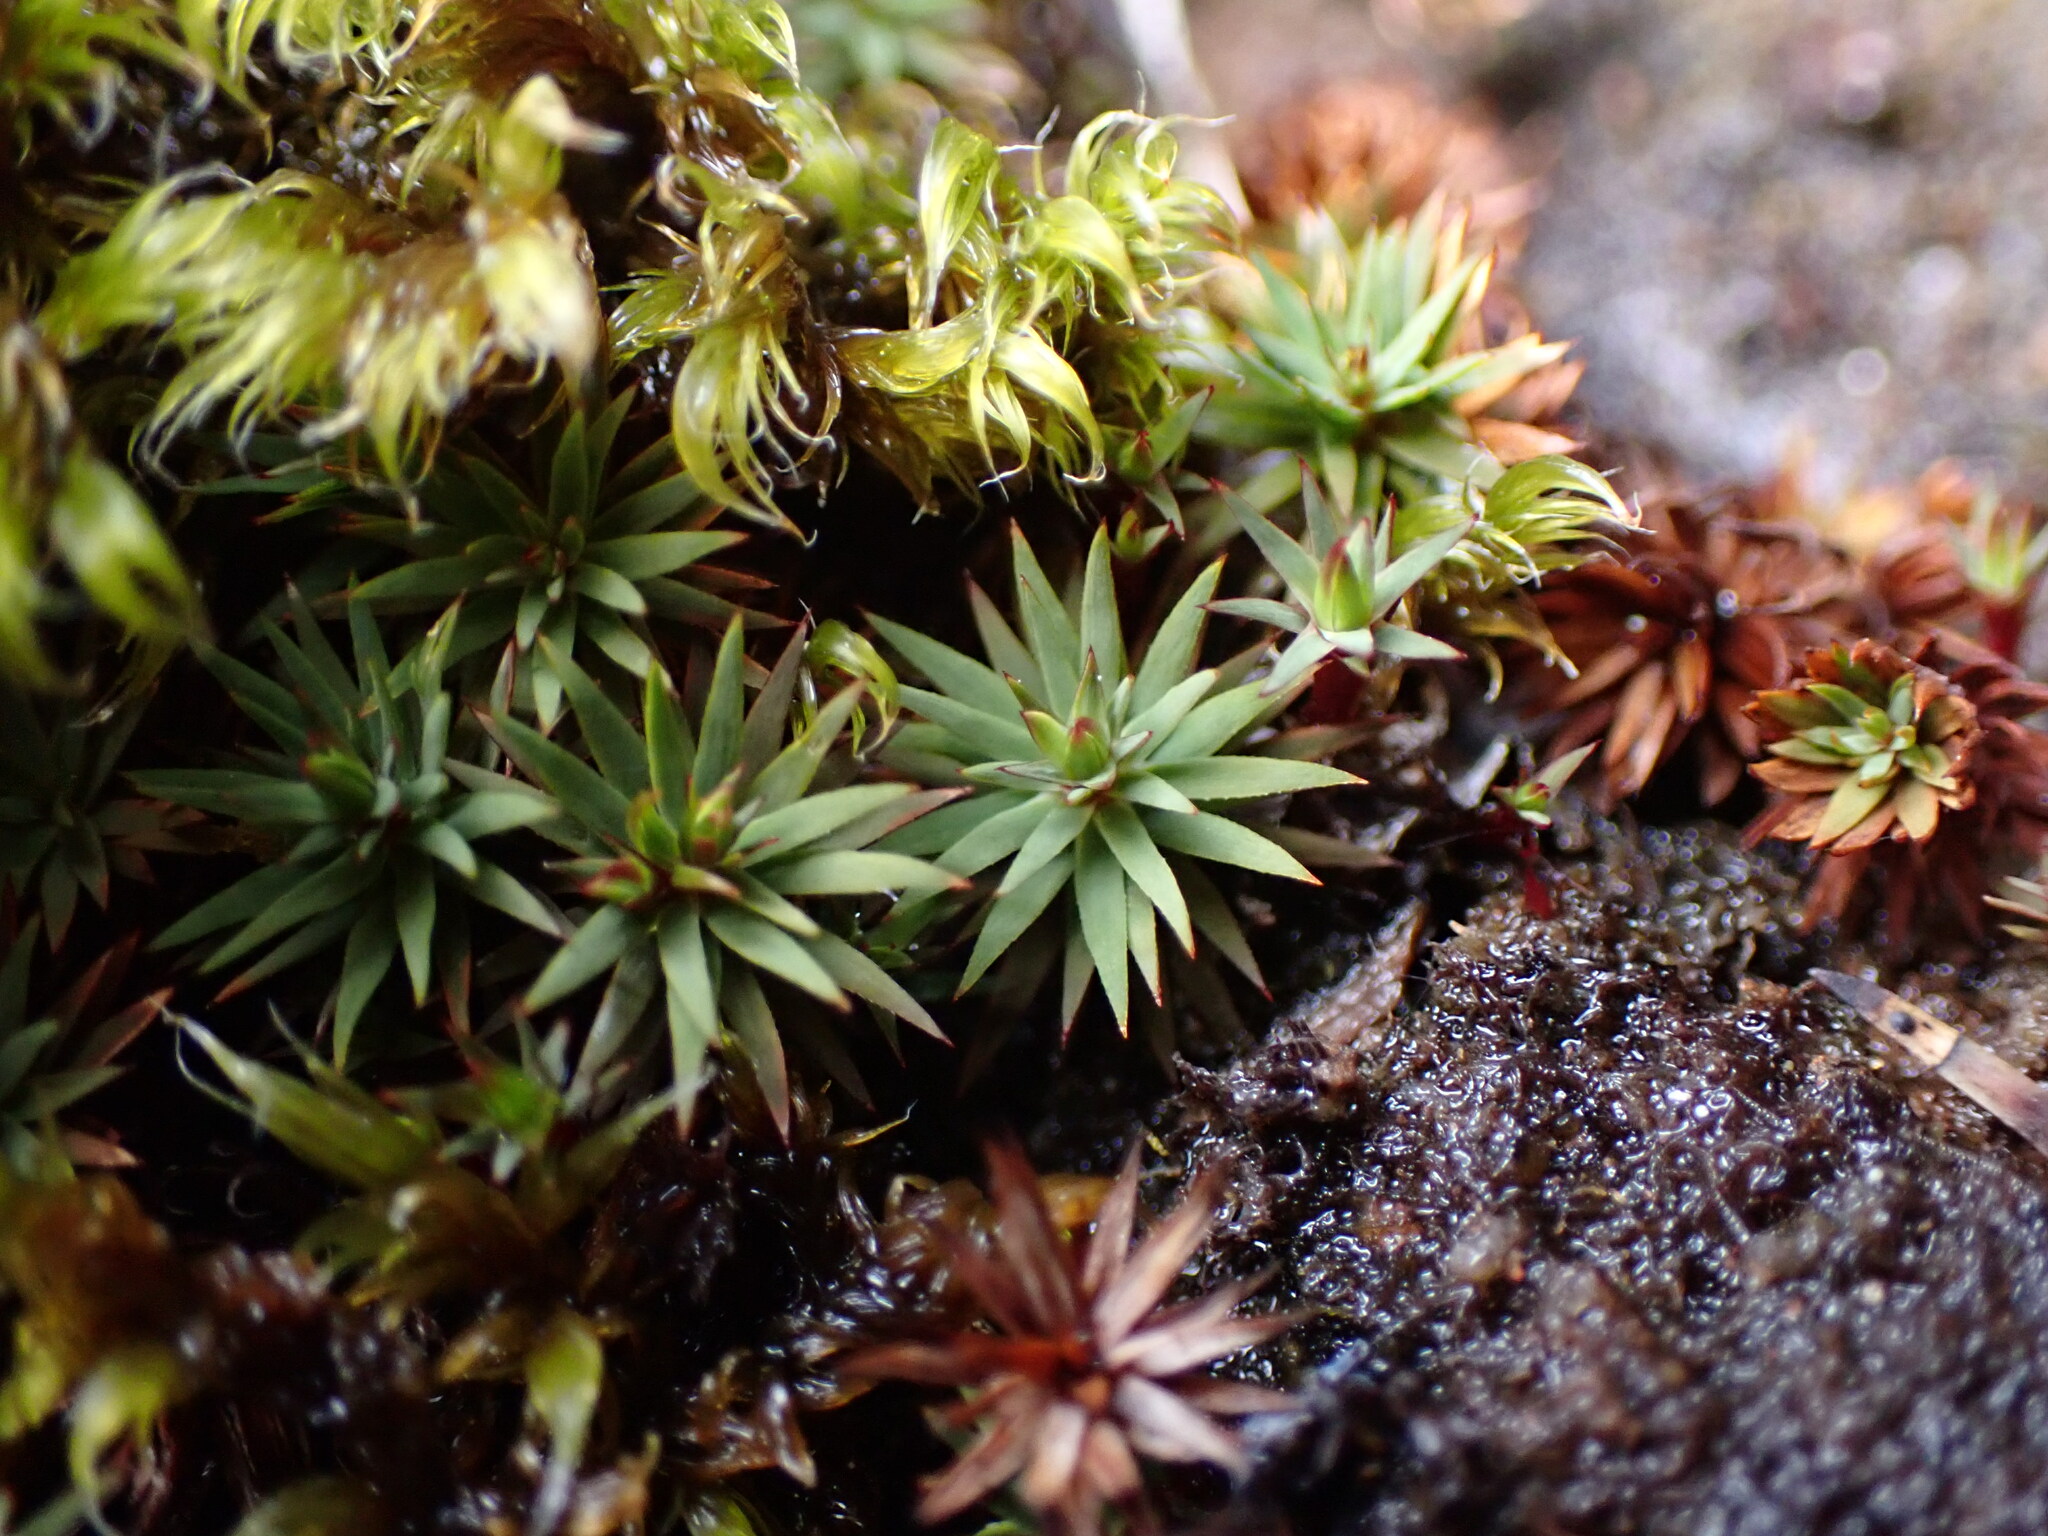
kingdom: Plantae
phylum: Bryophyta
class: Polytrichopsida
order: Polytrichales
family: Polytrichaceae
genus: Pogonatum
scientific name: Pogonatum urnigerum
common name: Urn hair moss
